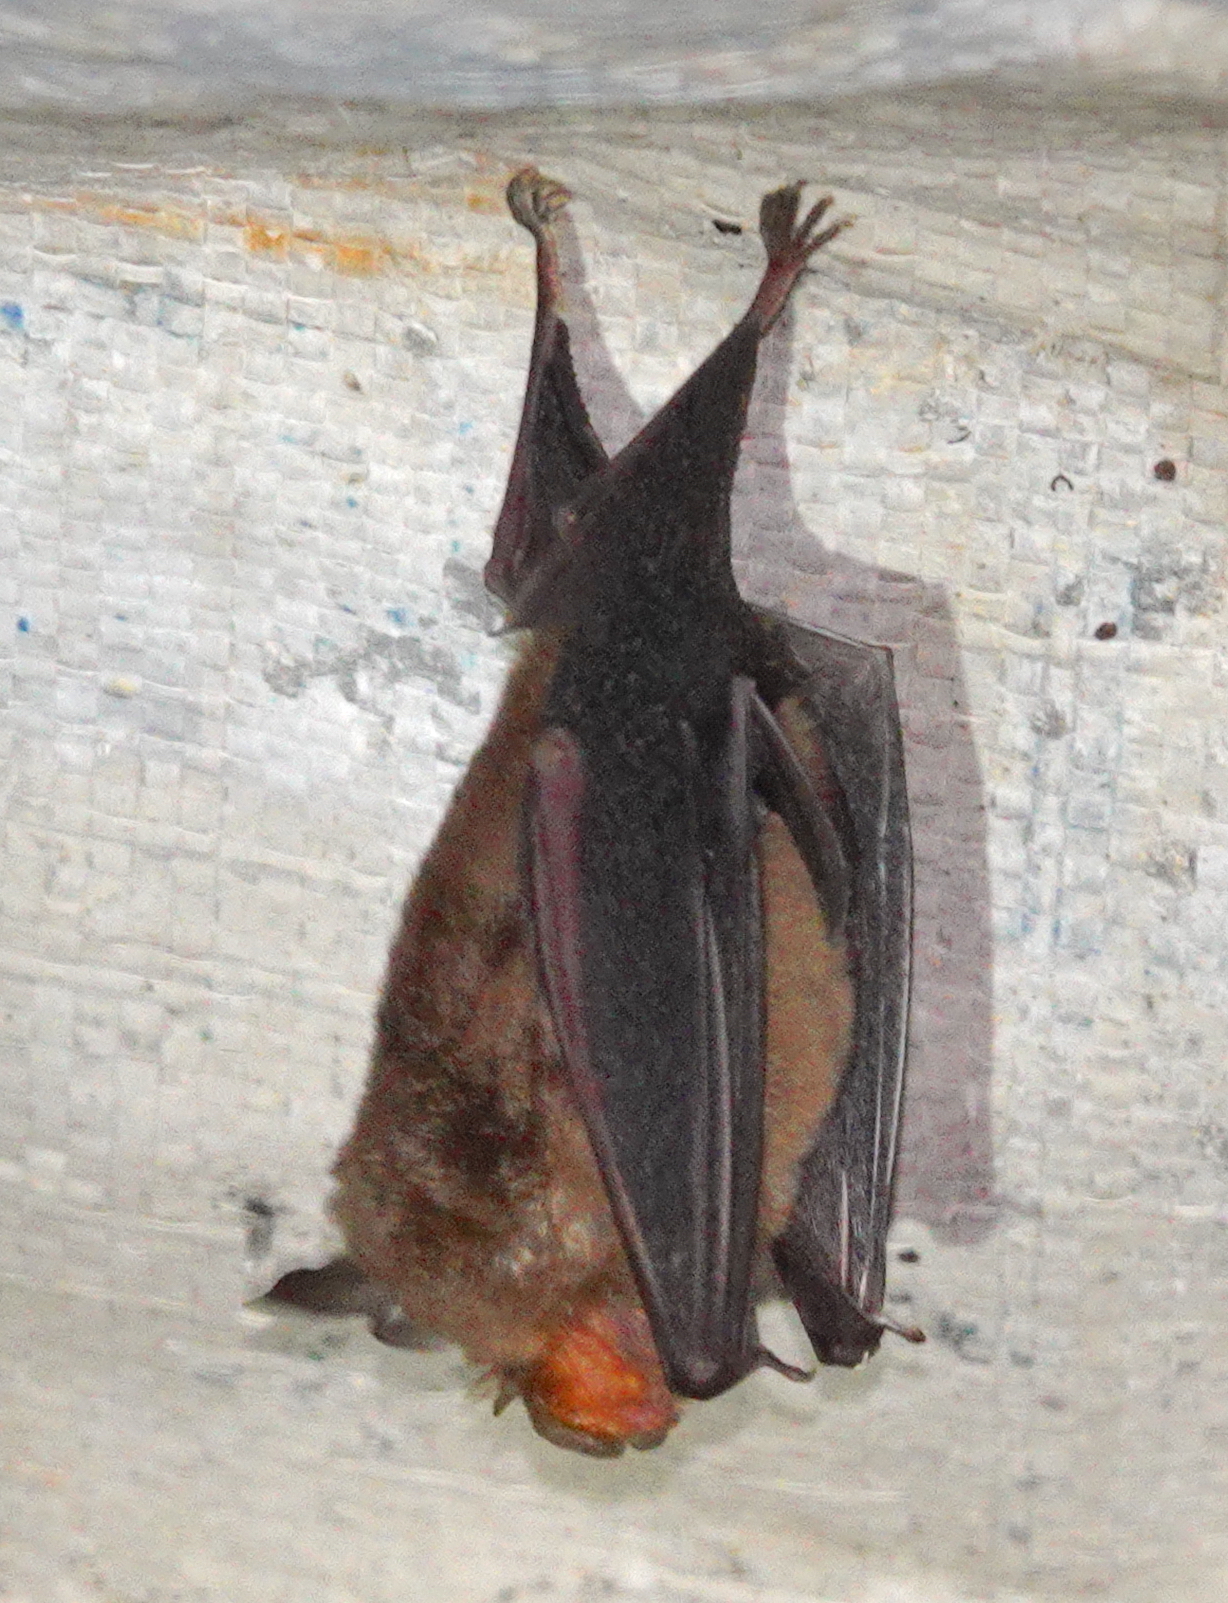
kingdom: Animalia
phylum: Chordata
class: Mammalia
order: Chiroptera
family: Rhinolophidae
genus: Rhinolophus
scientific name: Rhinolophus keyensis
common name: Kai horseshoe bat
